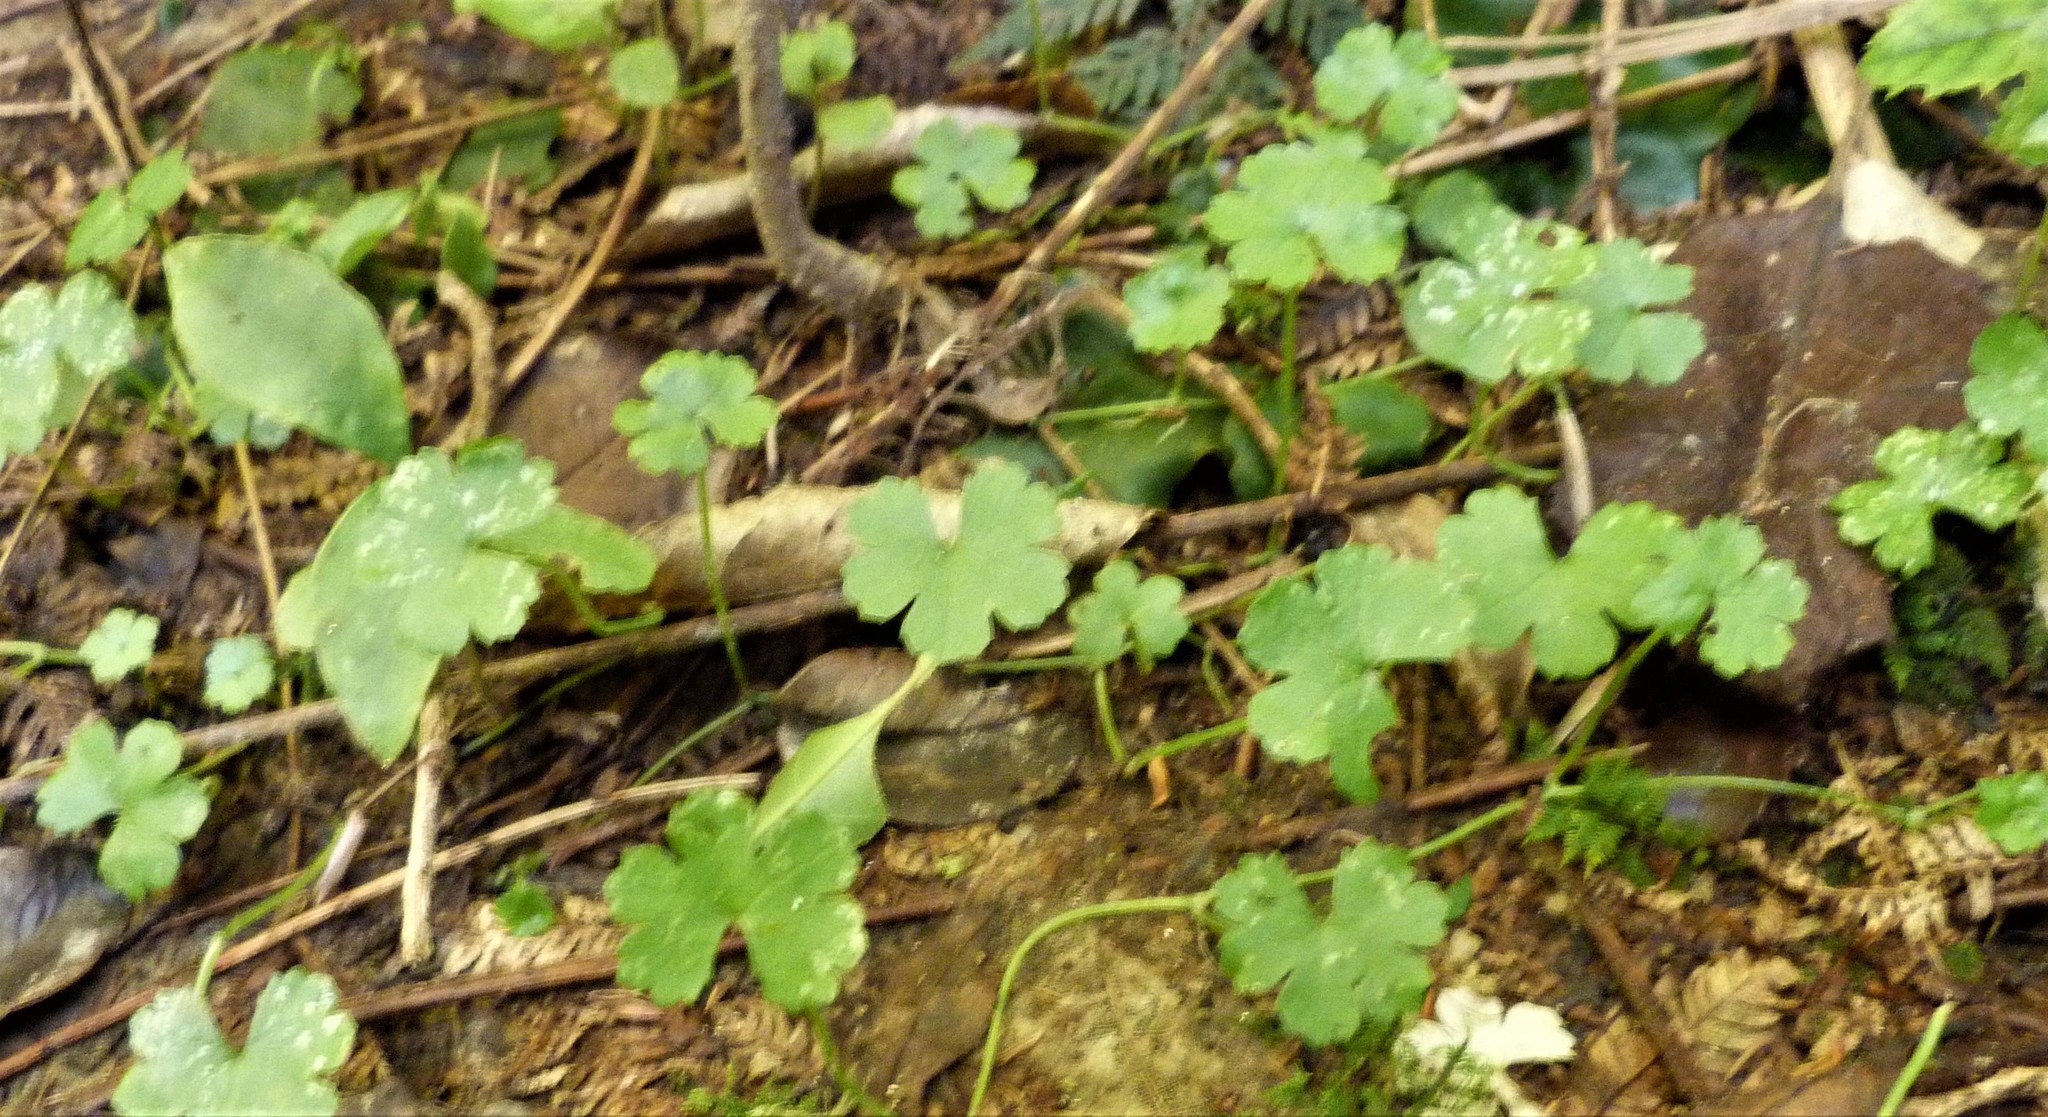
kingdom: Plantae
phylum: Tracheophyta
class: Magnoliopsida
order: Apiales
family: Araliaceae
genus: Hydrocotyle
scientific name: Hydrocotyle elongata
